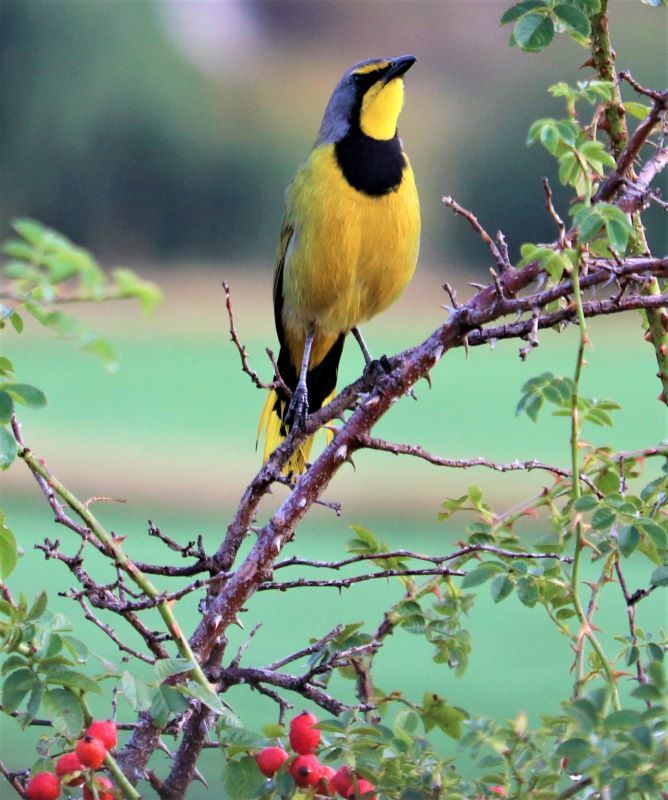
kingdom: Animalia
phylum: Chordata
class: Aves
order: Passeriformes
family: Malaconotidae
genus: Telophorus
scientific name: Telophorus zeylonus
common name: Bokmakierie
